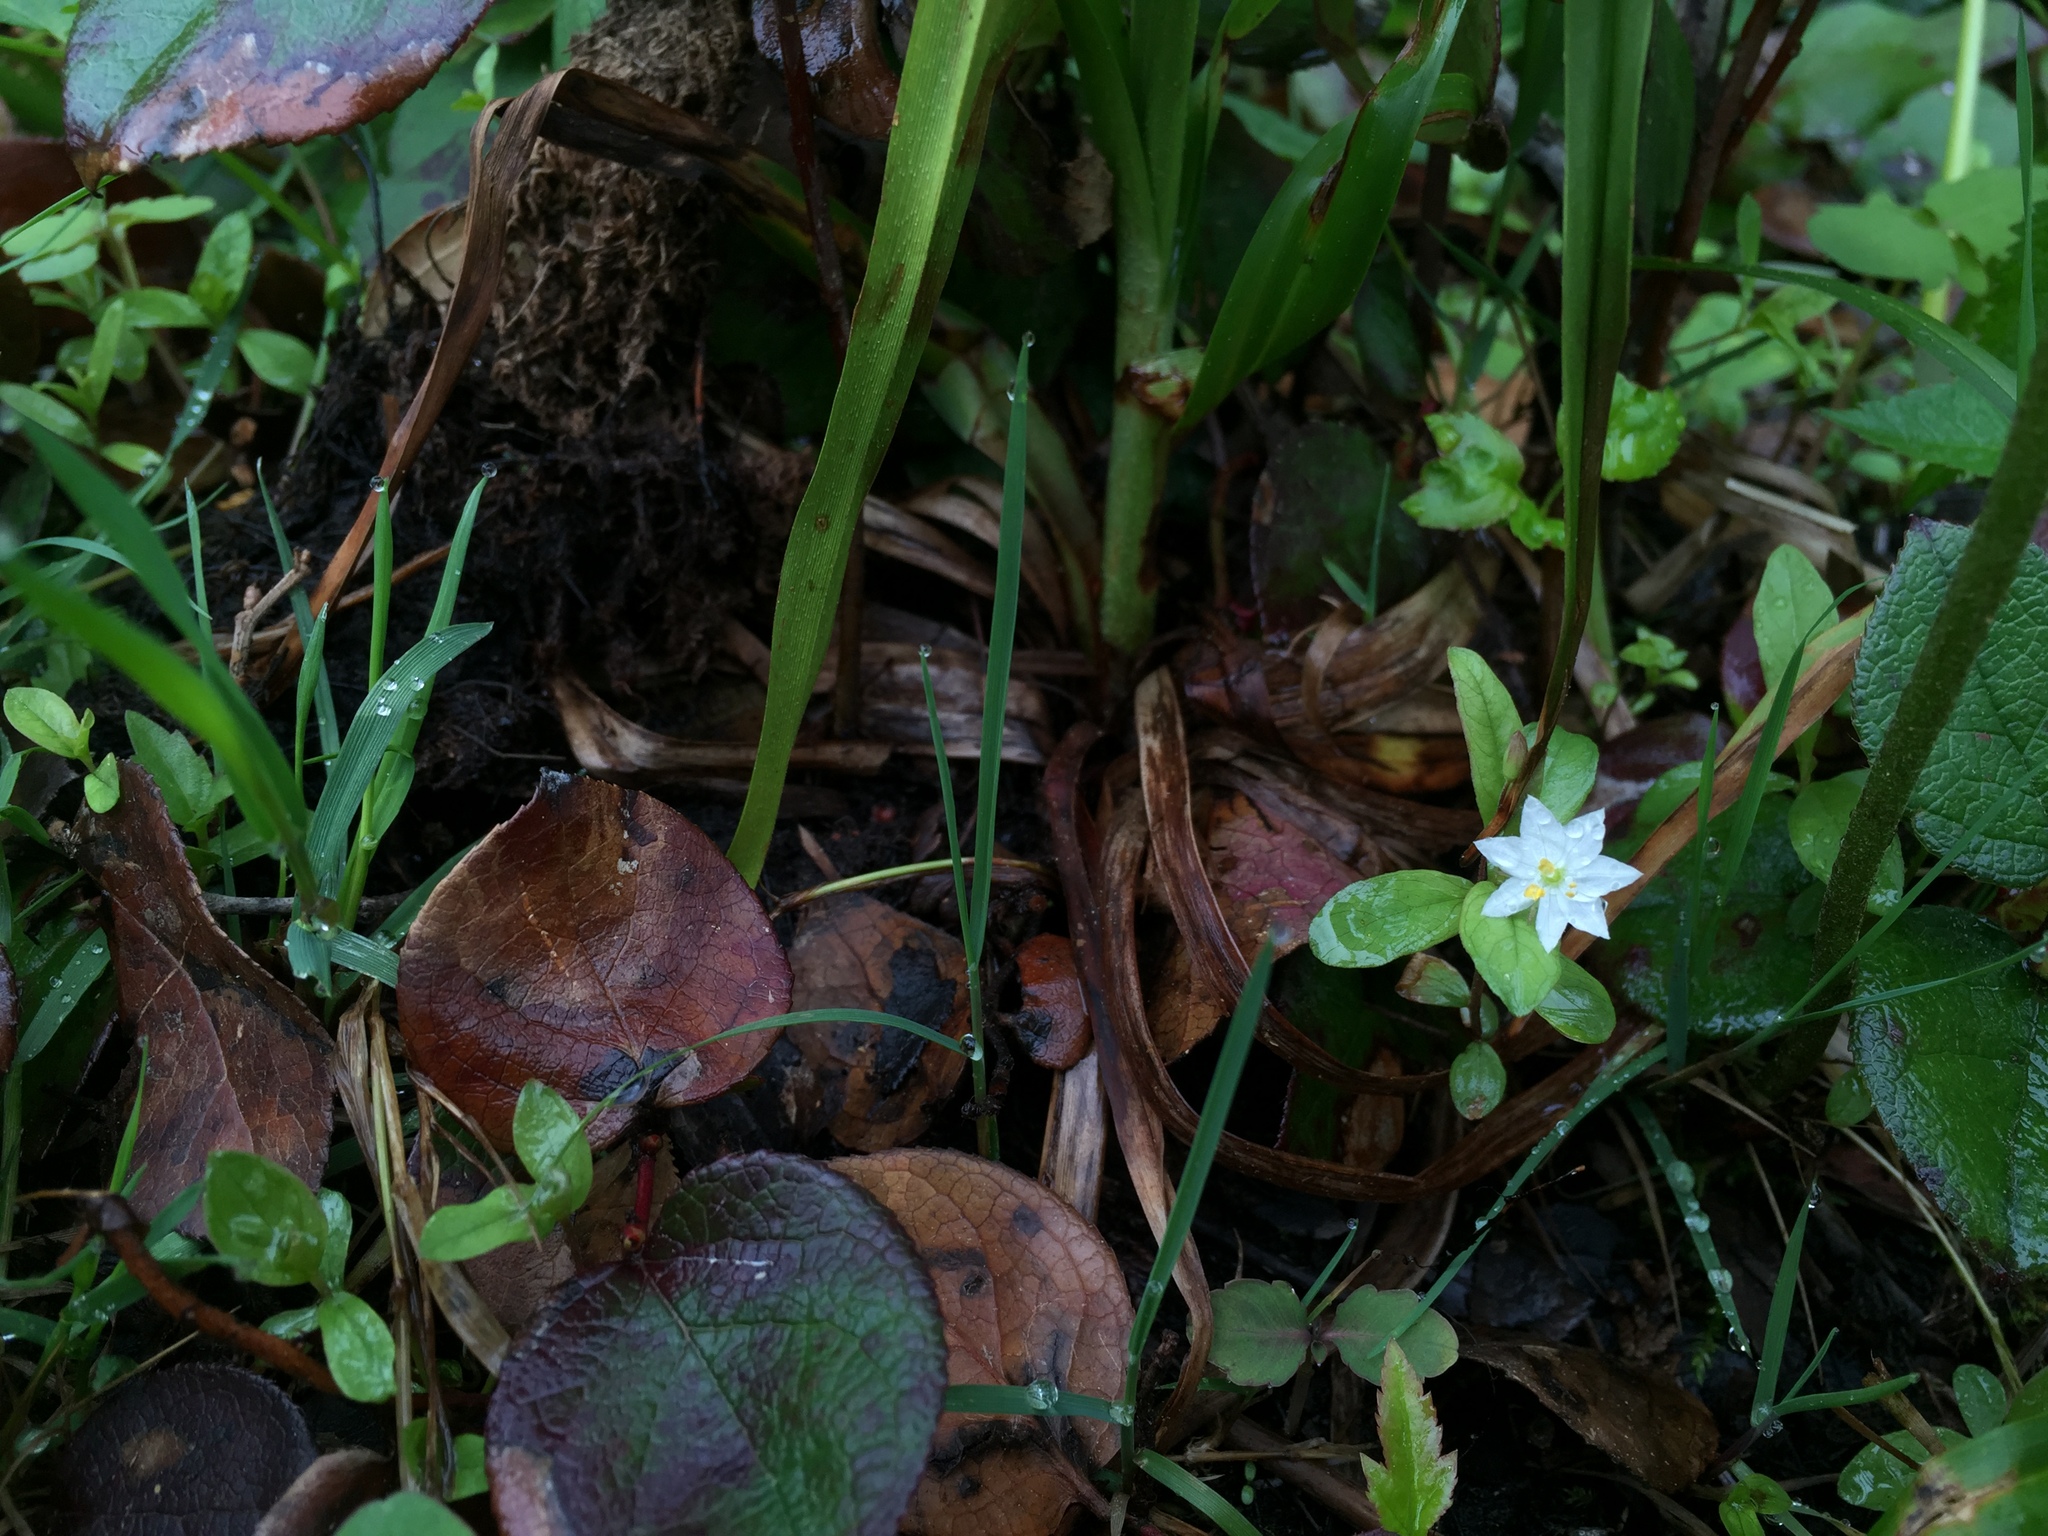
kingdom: Plantae
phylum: Tracheophyta
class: Magnoliopsida
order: Ericales
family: Primulaceae
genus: Lysimachia
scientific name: Lysimachia europaea
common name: Arctic starflower
